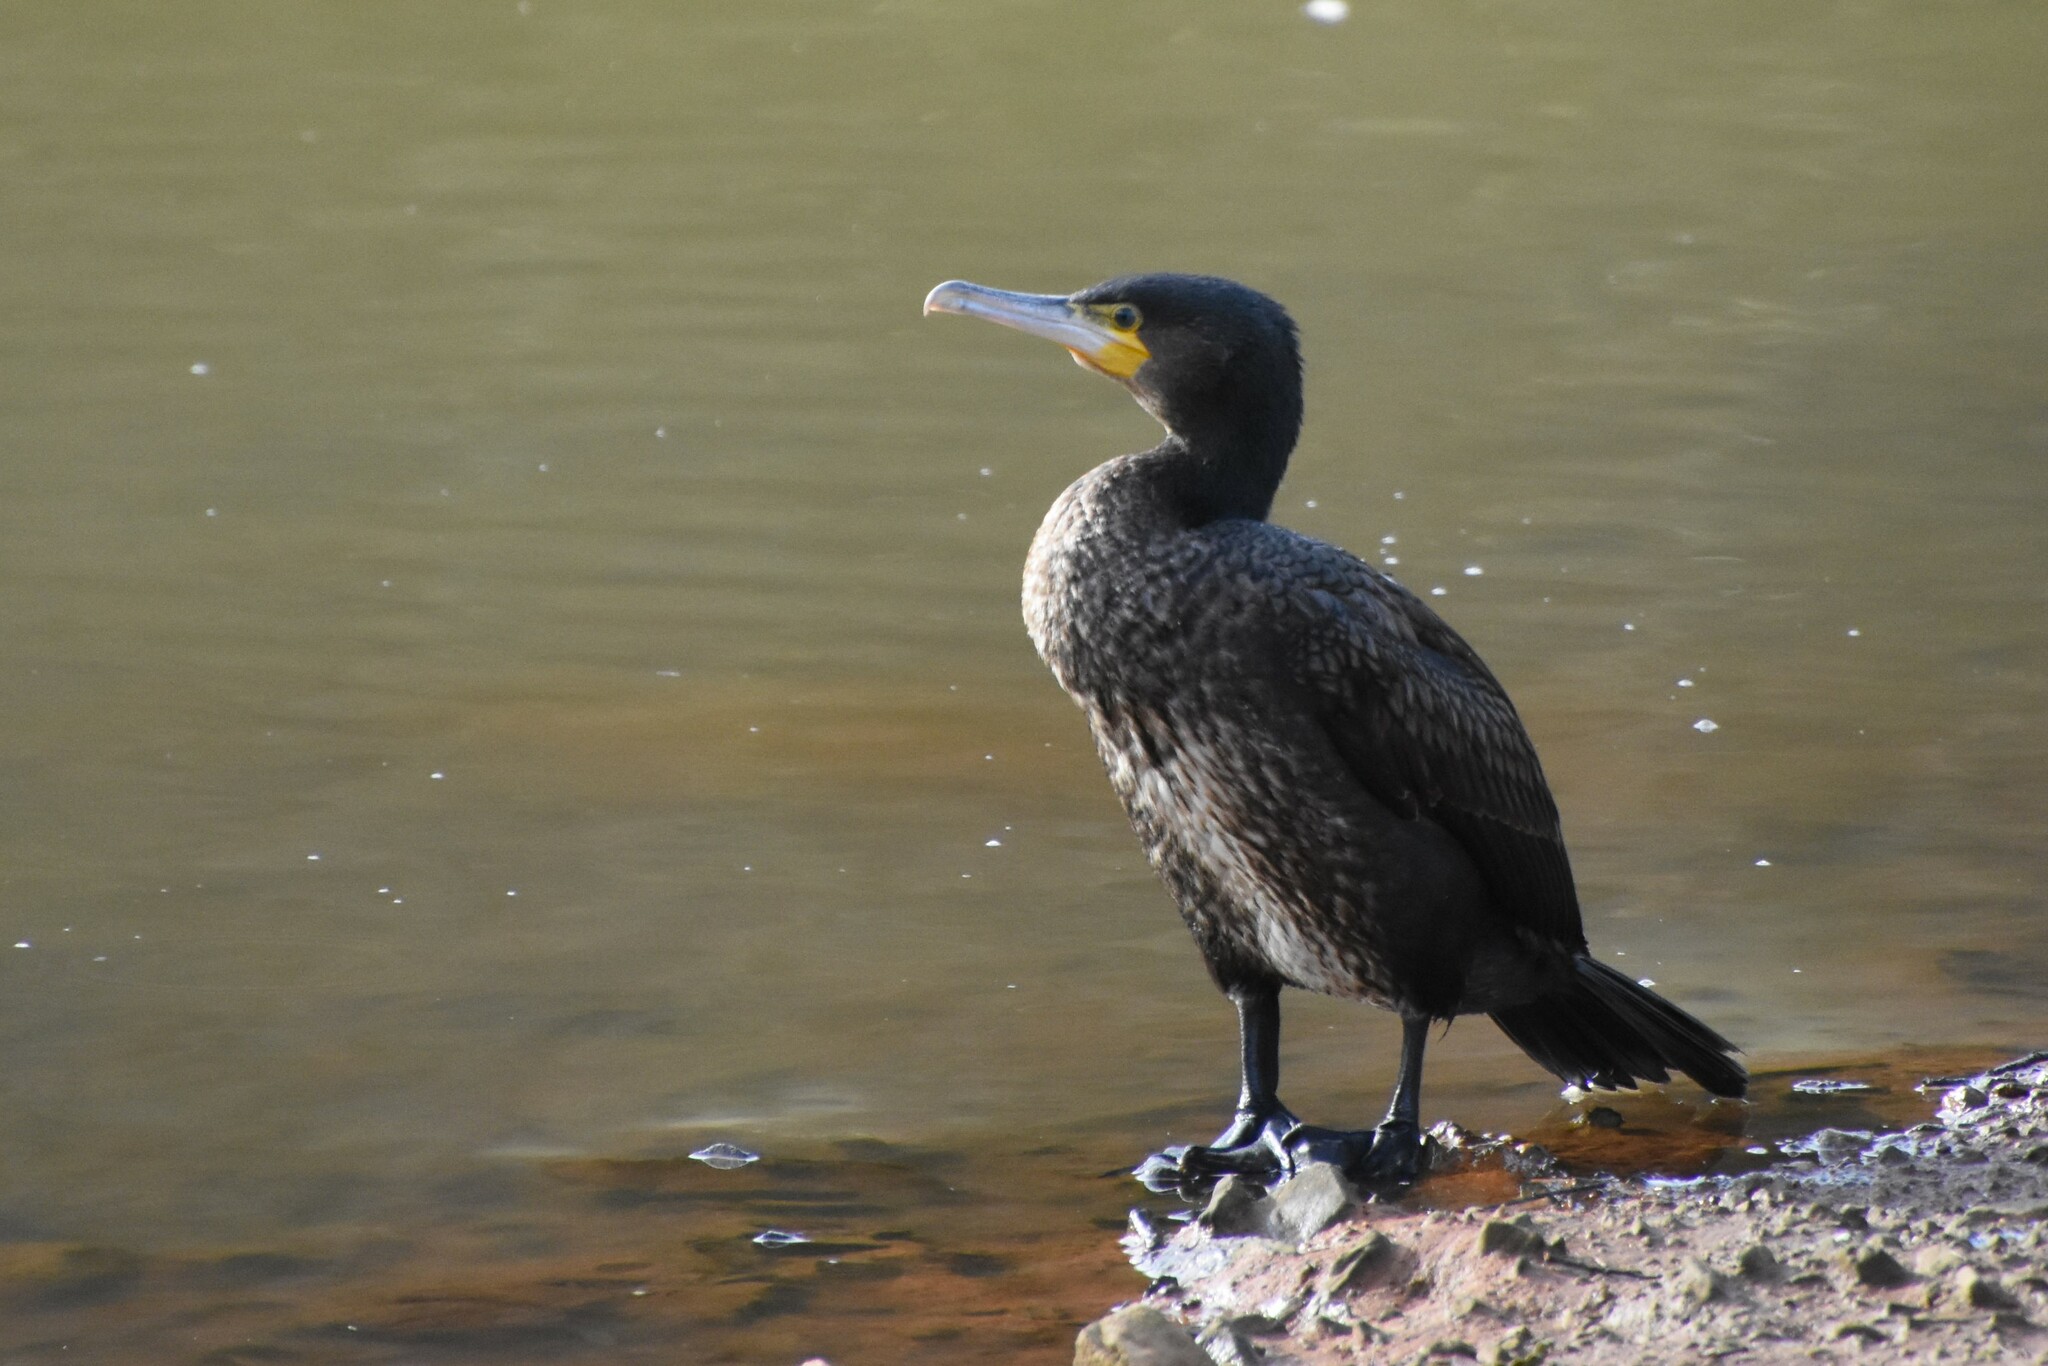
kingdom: Animalia
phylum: Chordata
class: Aves
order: Suliformes
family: Phalacrocoracidae
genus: Phalacrocorax
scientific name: Phalacrocorax carbo
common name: Great cormorant
